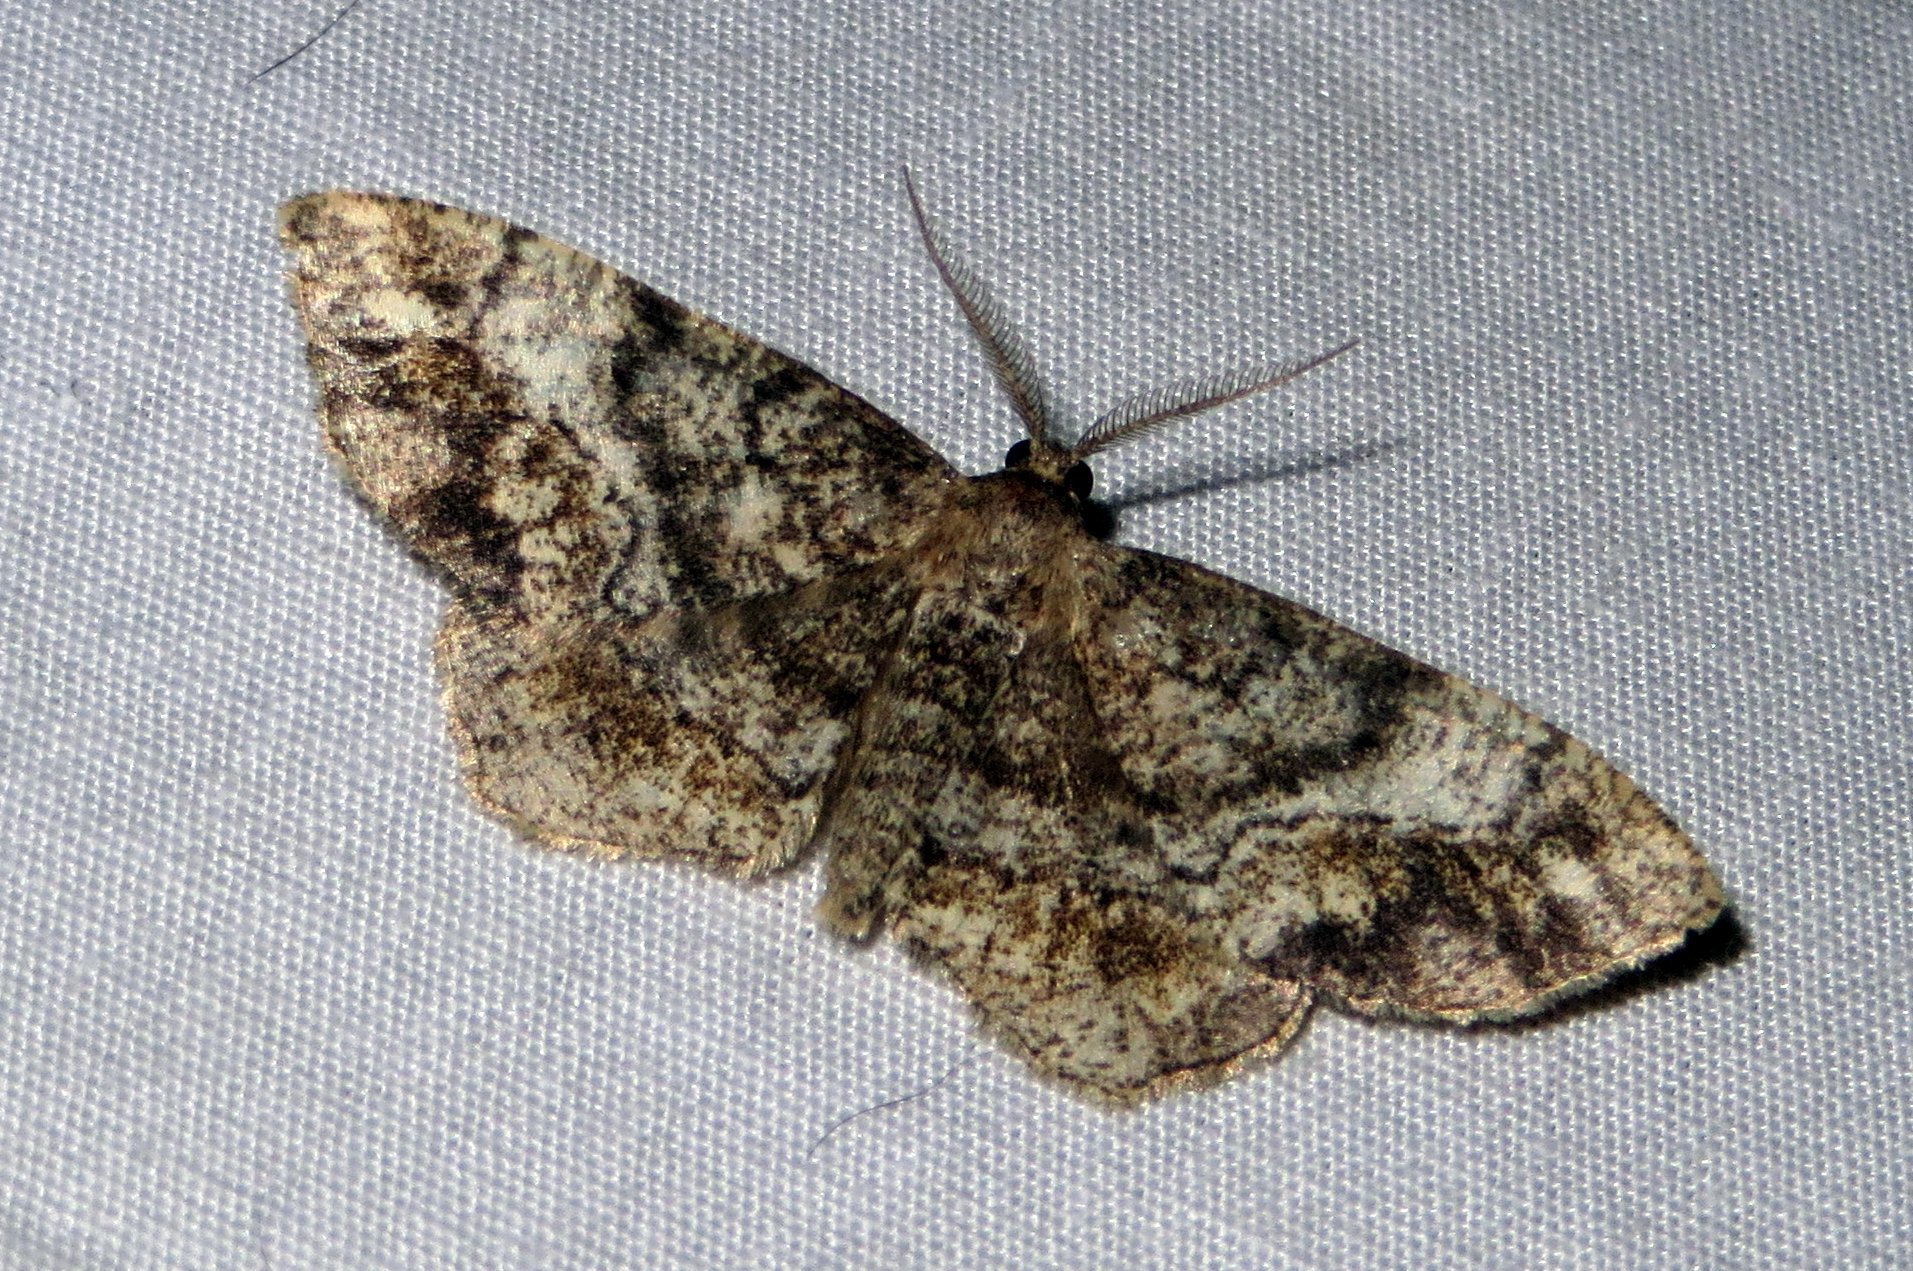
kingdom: Animalia
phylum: Arthropoda
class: Insecta
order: Lepidoptera
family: Geometridae
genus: Hypagyrtis
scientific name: Hypagyrtis unipunctata
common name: One-spotted variant
